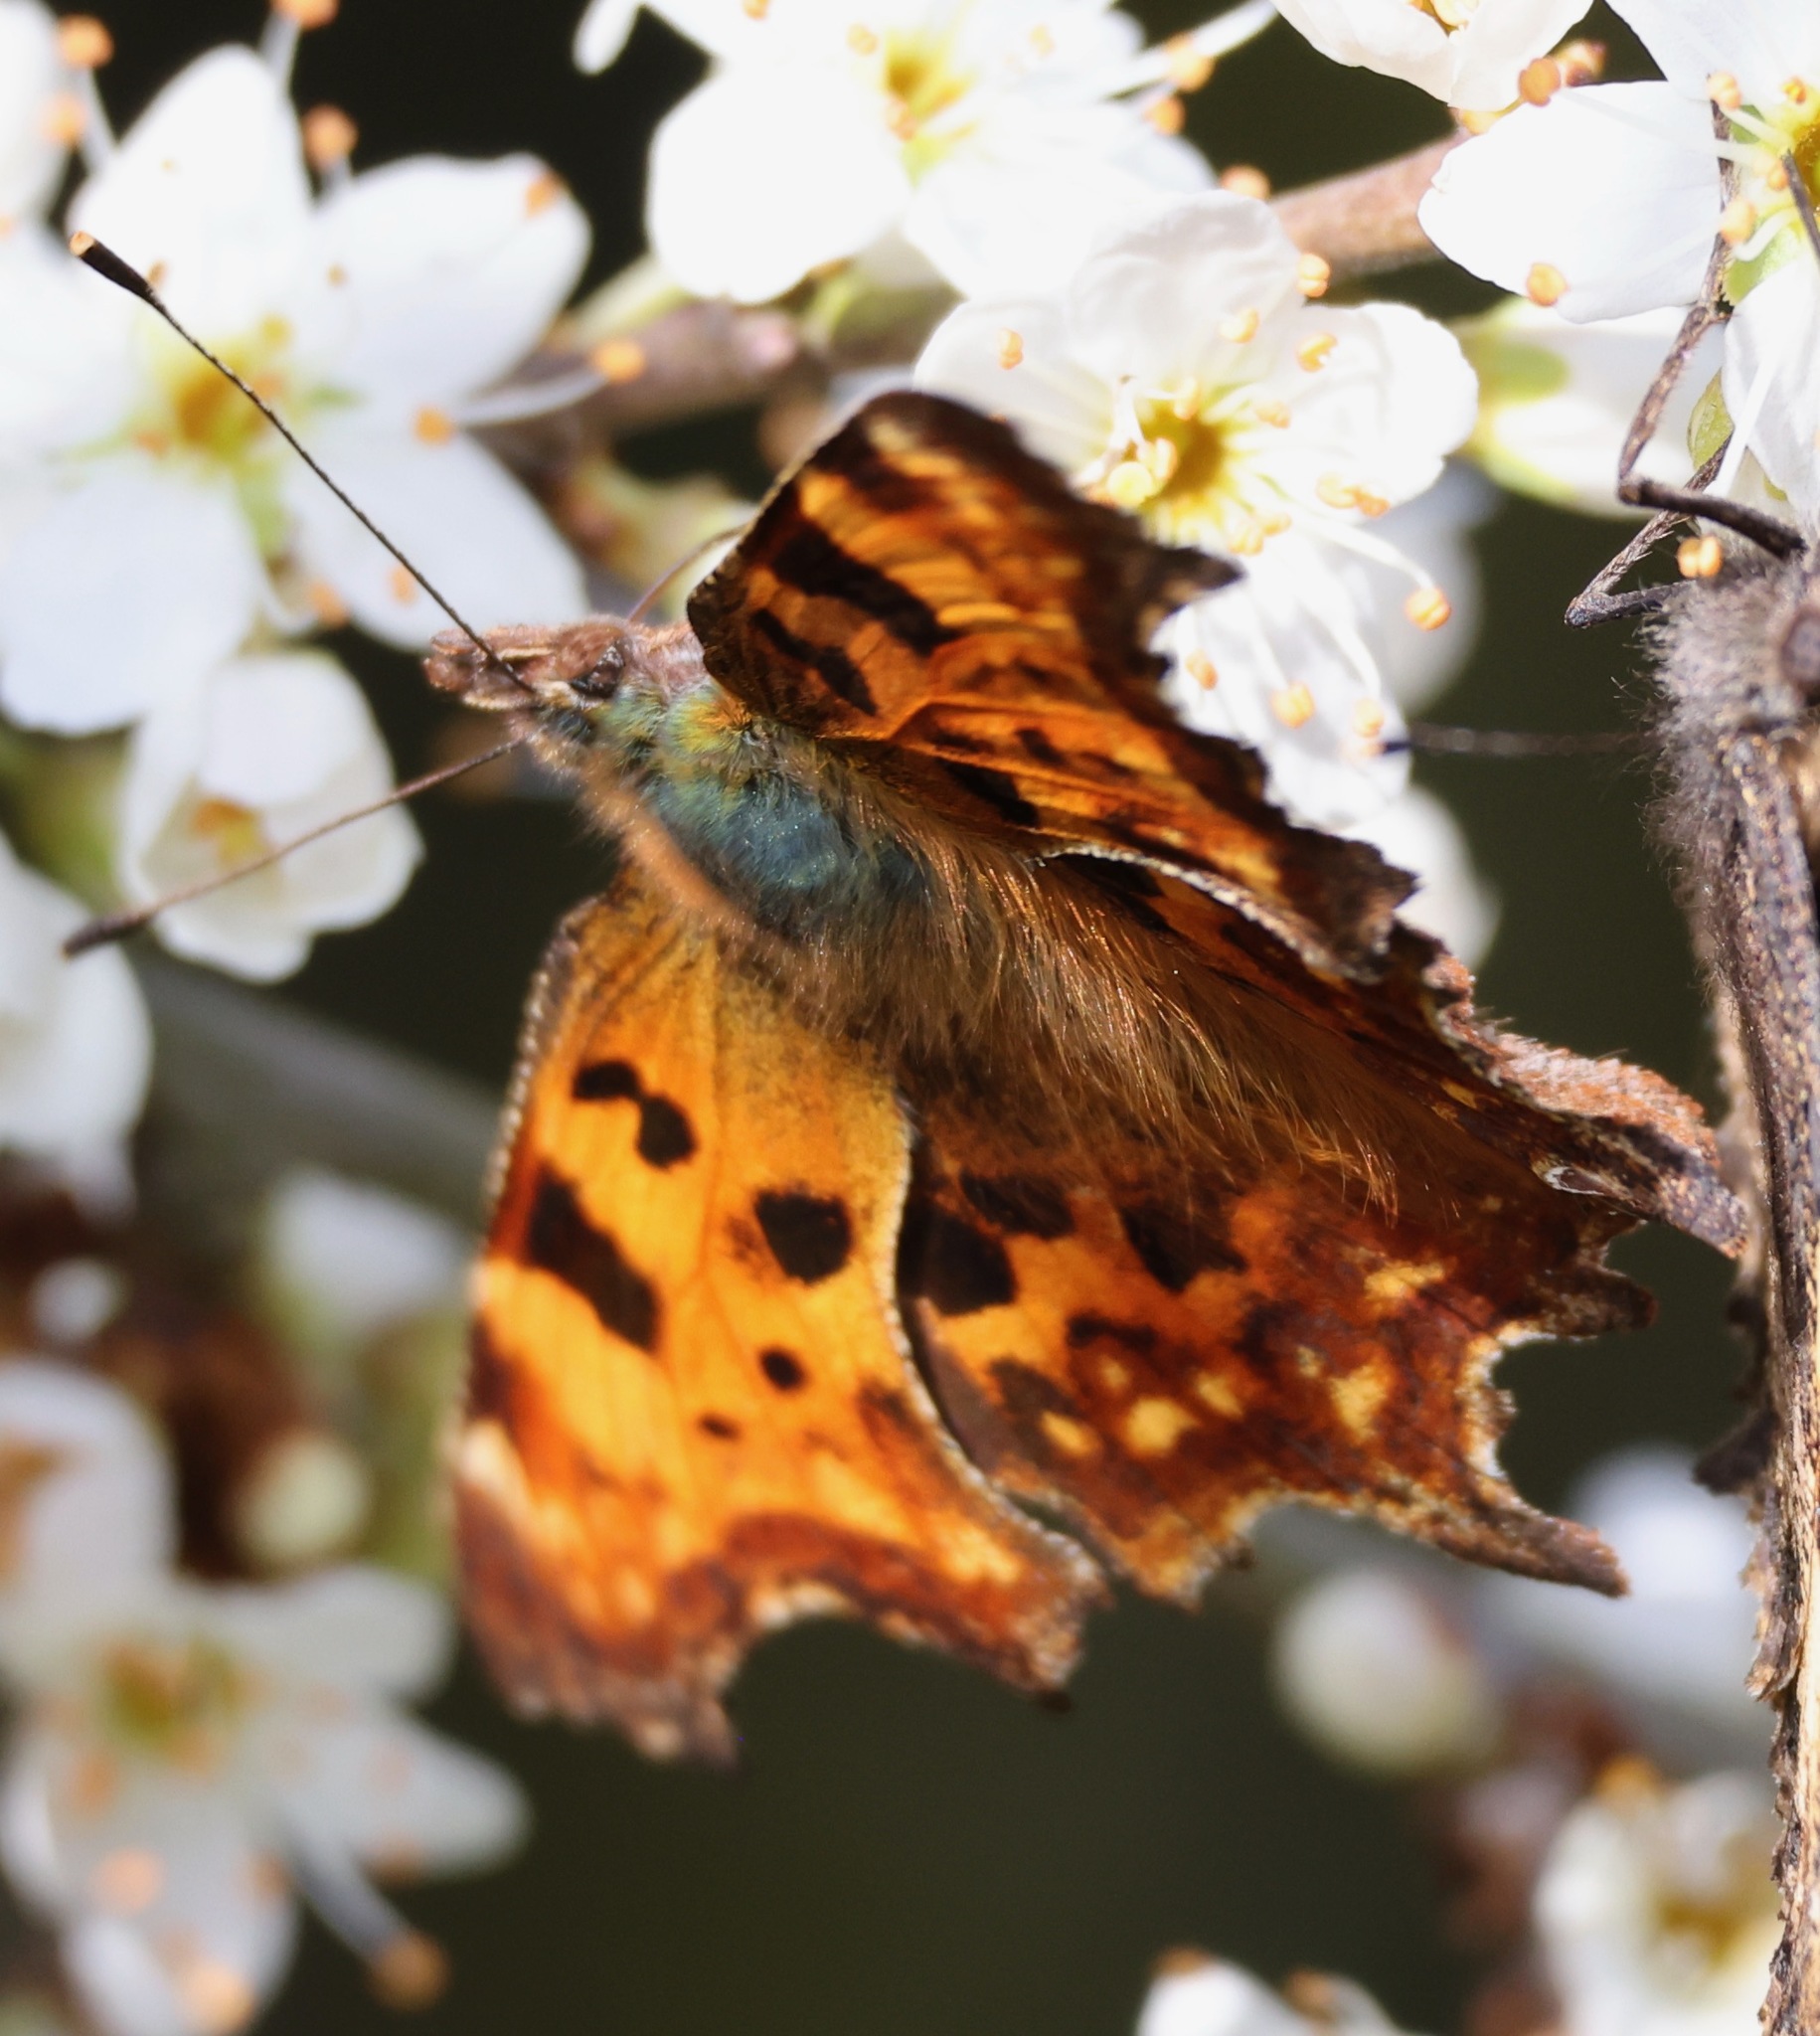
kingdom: Animalia
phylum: Arthropoda
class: Insecta
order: Lepidoptera
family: Nymphalidae
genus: Polygonia
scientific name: Polygonia c-album
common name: Comma
